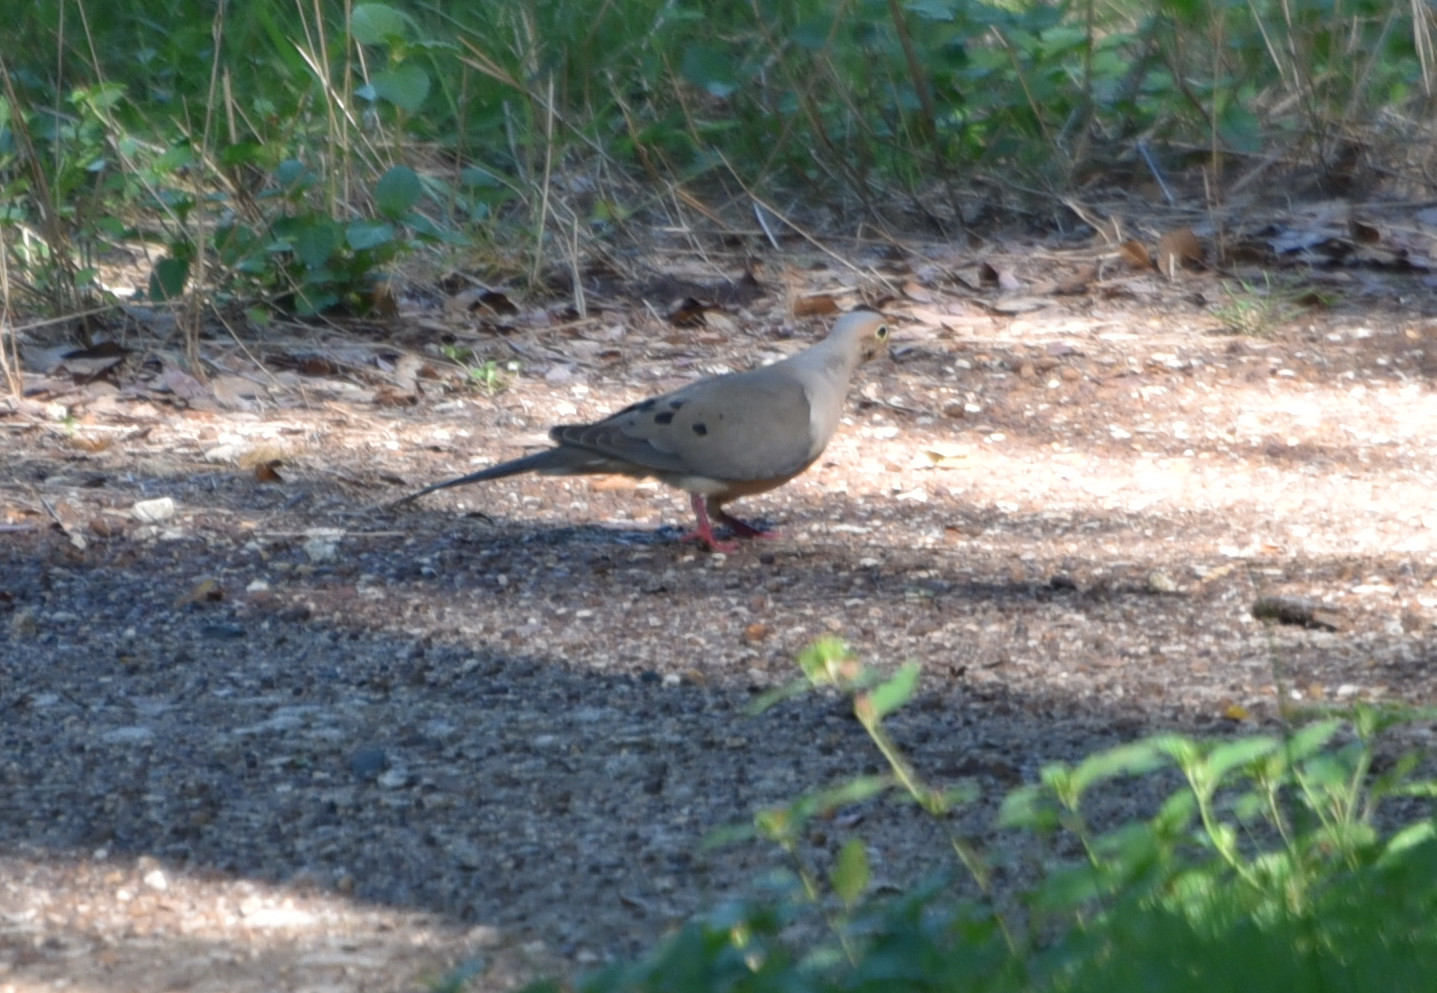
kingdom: Animalia
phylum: Chordata
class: Aves
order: Columbiformes
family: Columbidae
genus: Zenaida
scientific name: Zenaida macroura
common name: Mourning dove
